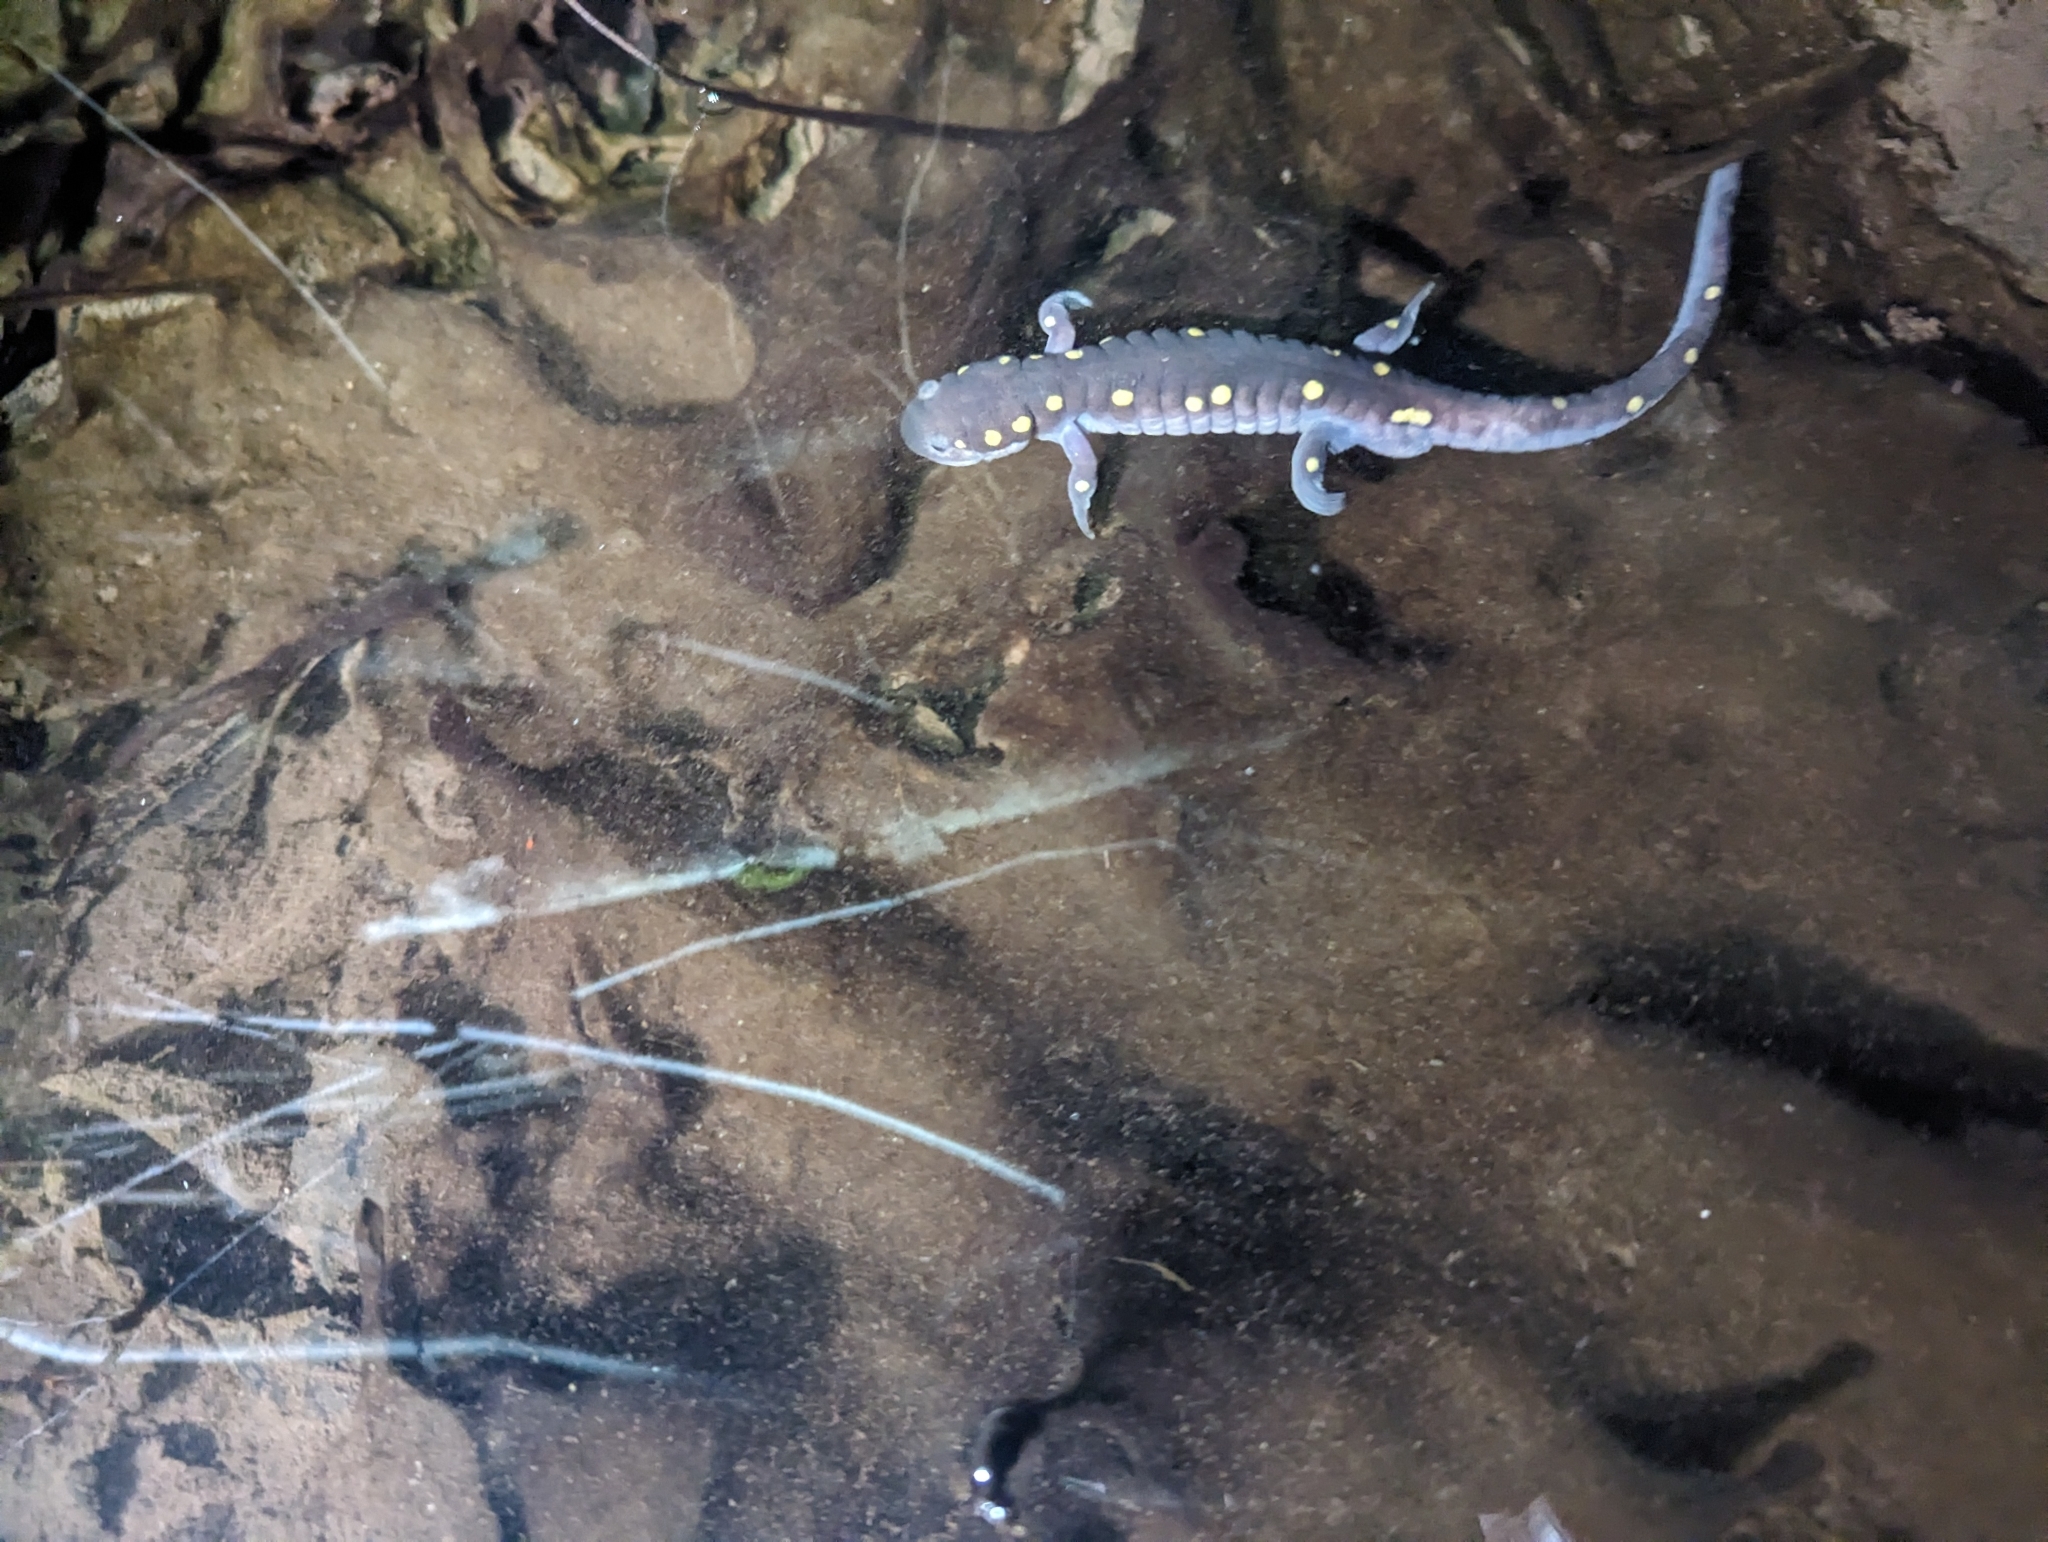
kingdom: Animalia
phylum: Chordata
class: Amphibia
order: Caudata
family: Ambystomatidae
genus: Ambystoma
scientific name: Ambystoma maculatum
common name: Spotted salamander
